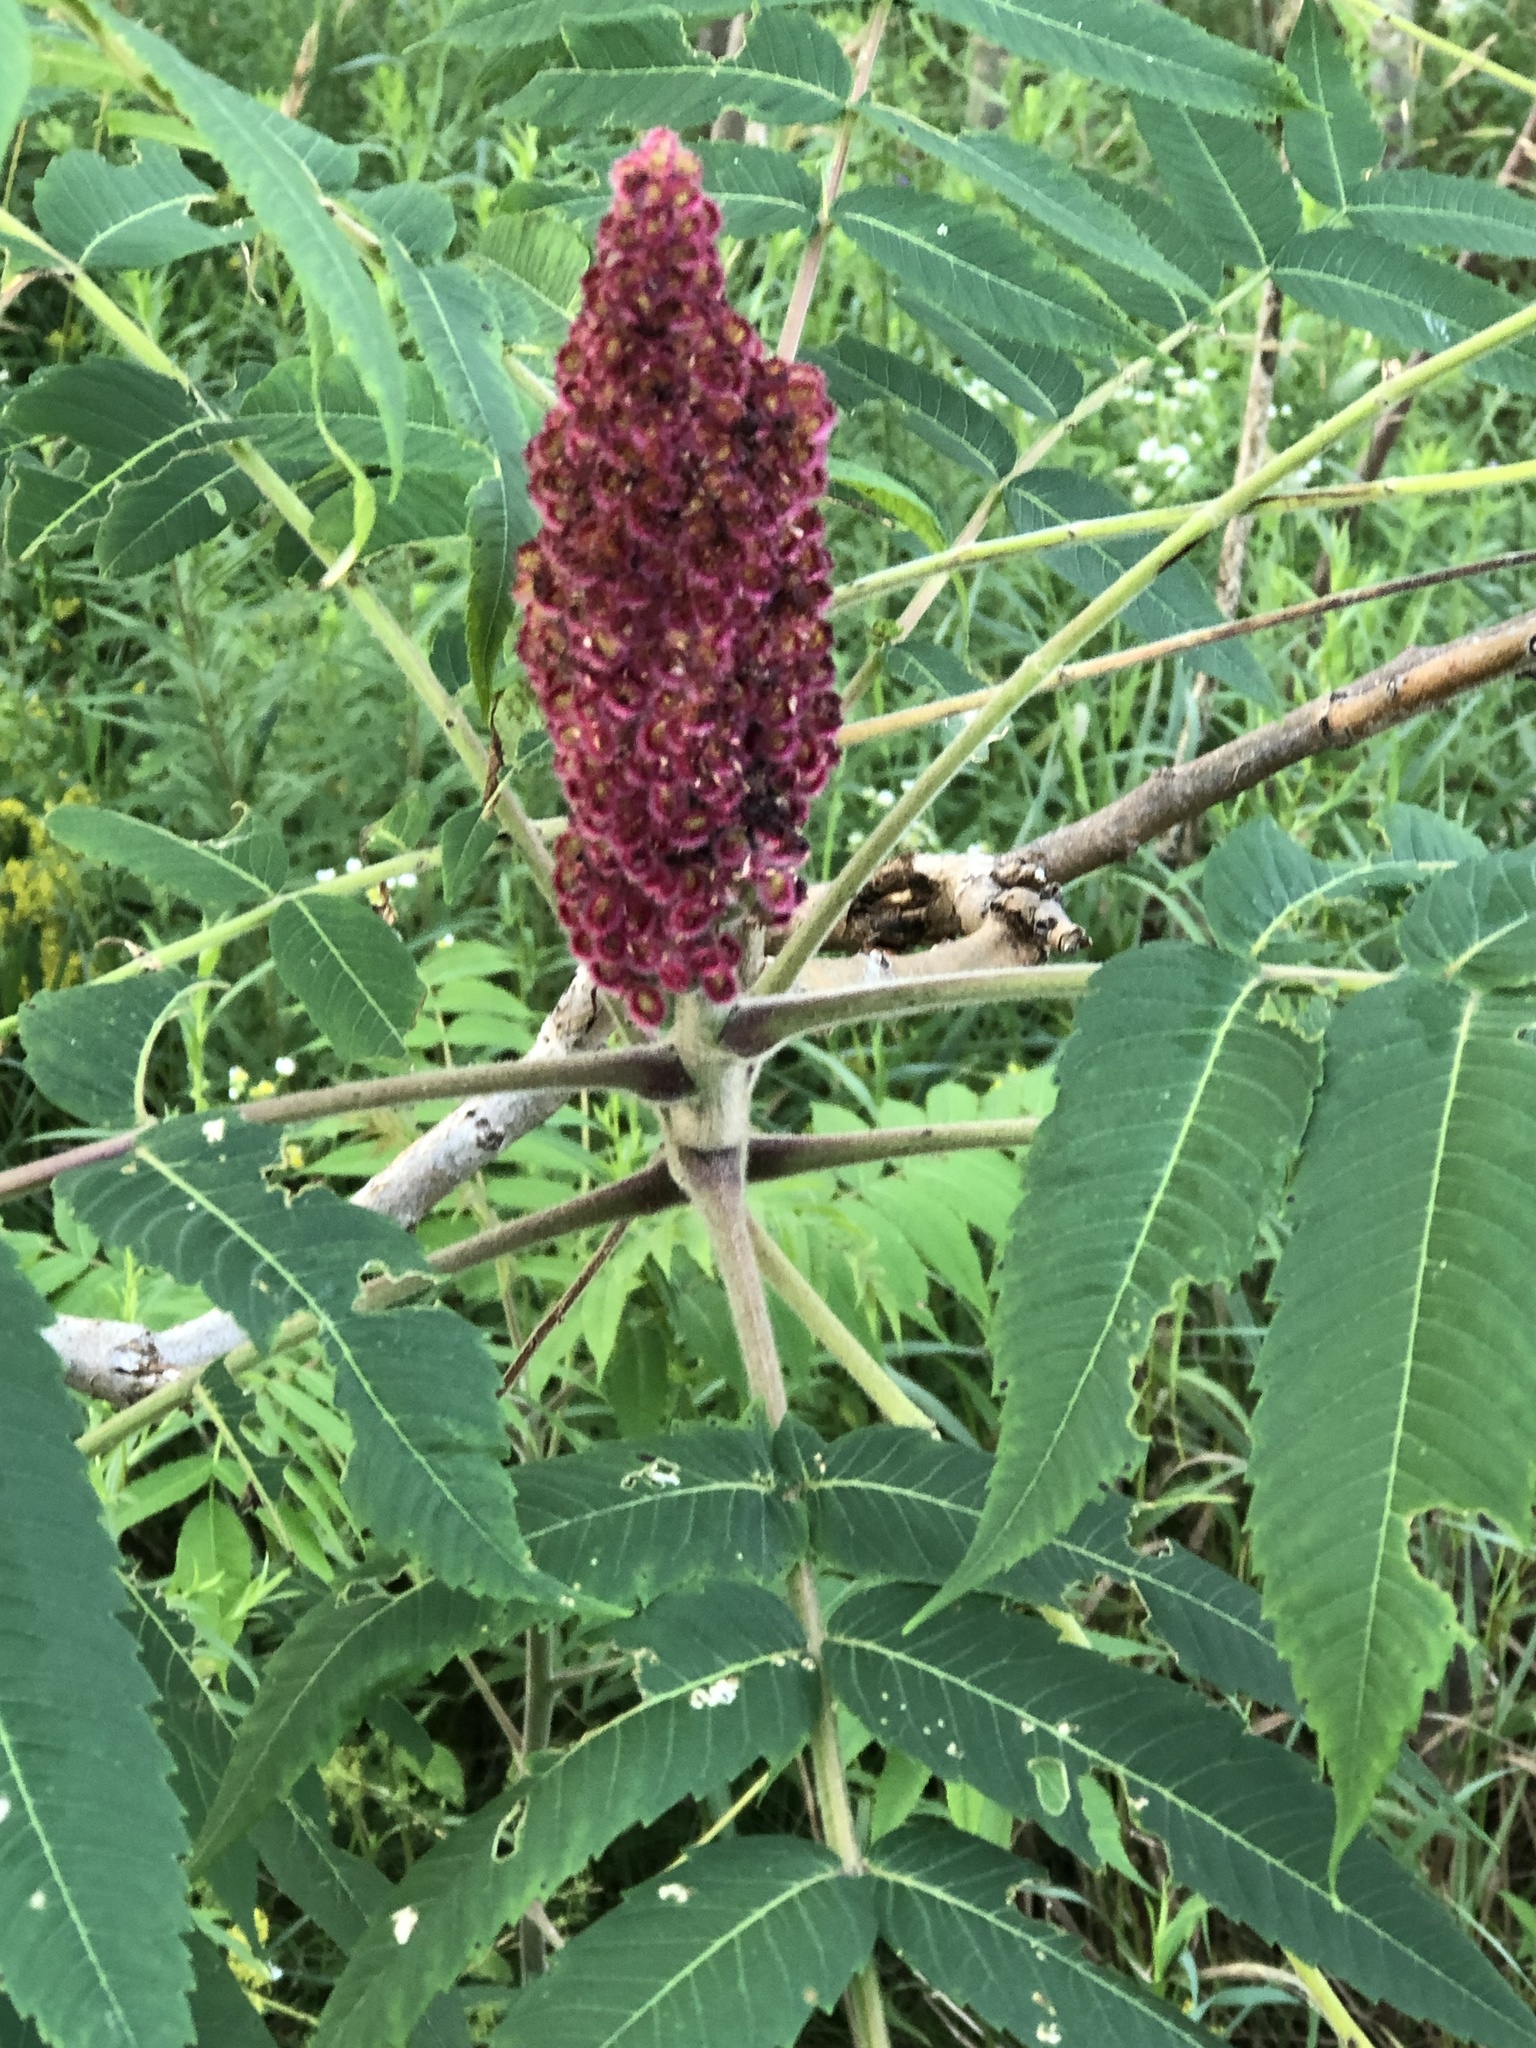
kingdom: Plantae
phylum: Tracheophyta
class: Magnoliopsida
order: Sapindales
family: Anacardiaceae
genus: Rhus
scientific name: Rhus typhina
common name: Staghorn sumac
